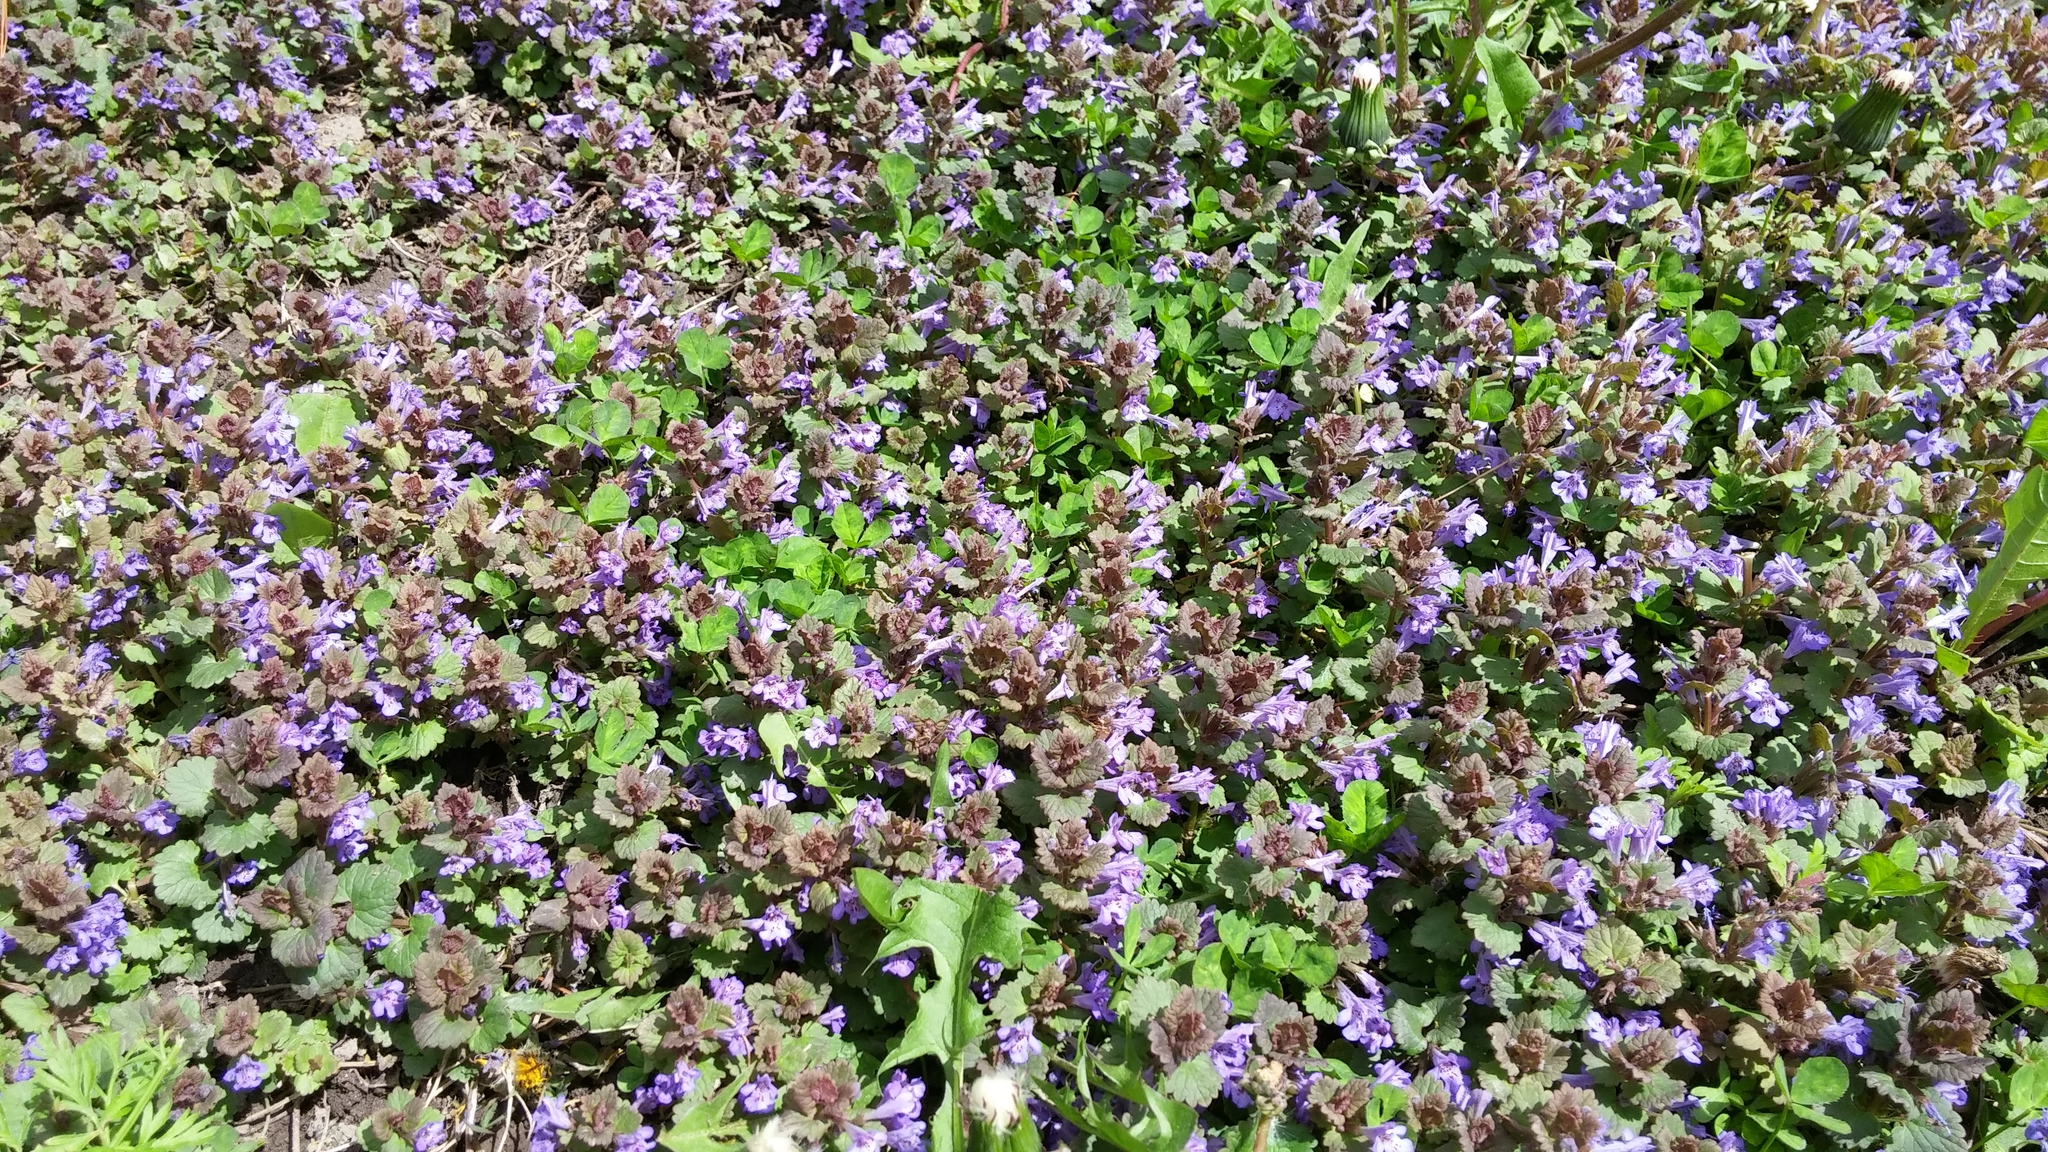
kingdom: Plantae
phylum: Tracheophyta
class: Magnoliopsida
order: Lamiales
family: Lamiaceae
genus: Glechoma
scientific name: Glechoma hederacea
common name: Ground ivy
